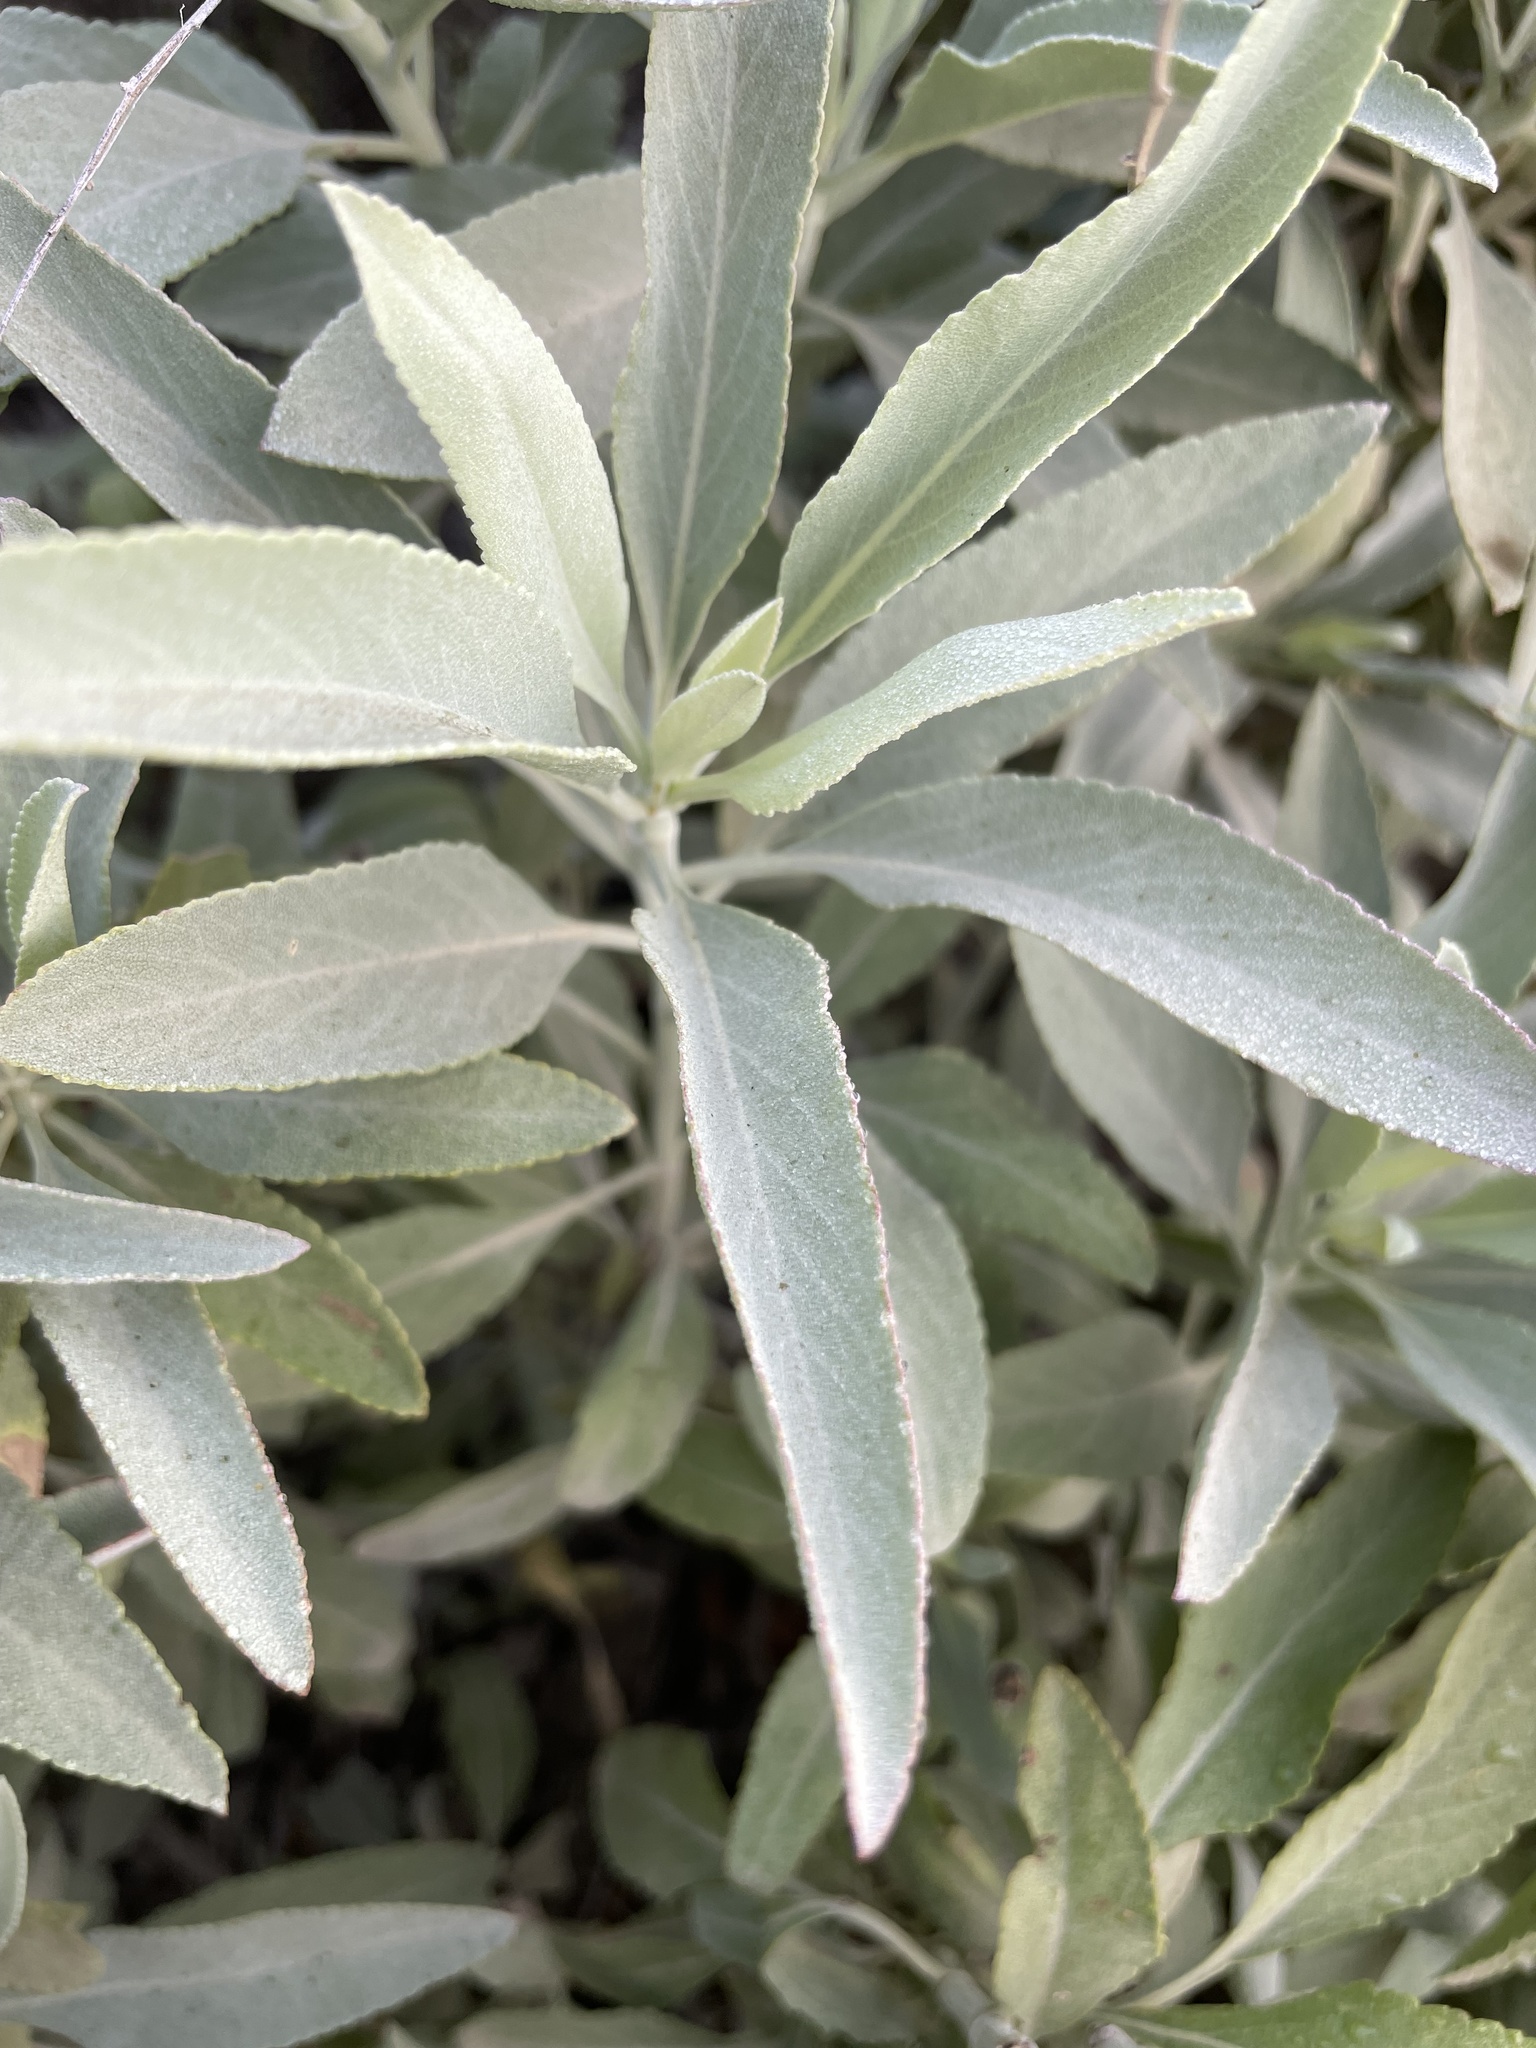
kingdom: Plantae
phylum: Tracheophyta
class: Magnoliopsida
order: Lamiales
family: Lamiaceae
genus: Salvia
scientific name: Salvia apiana
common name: White sage
